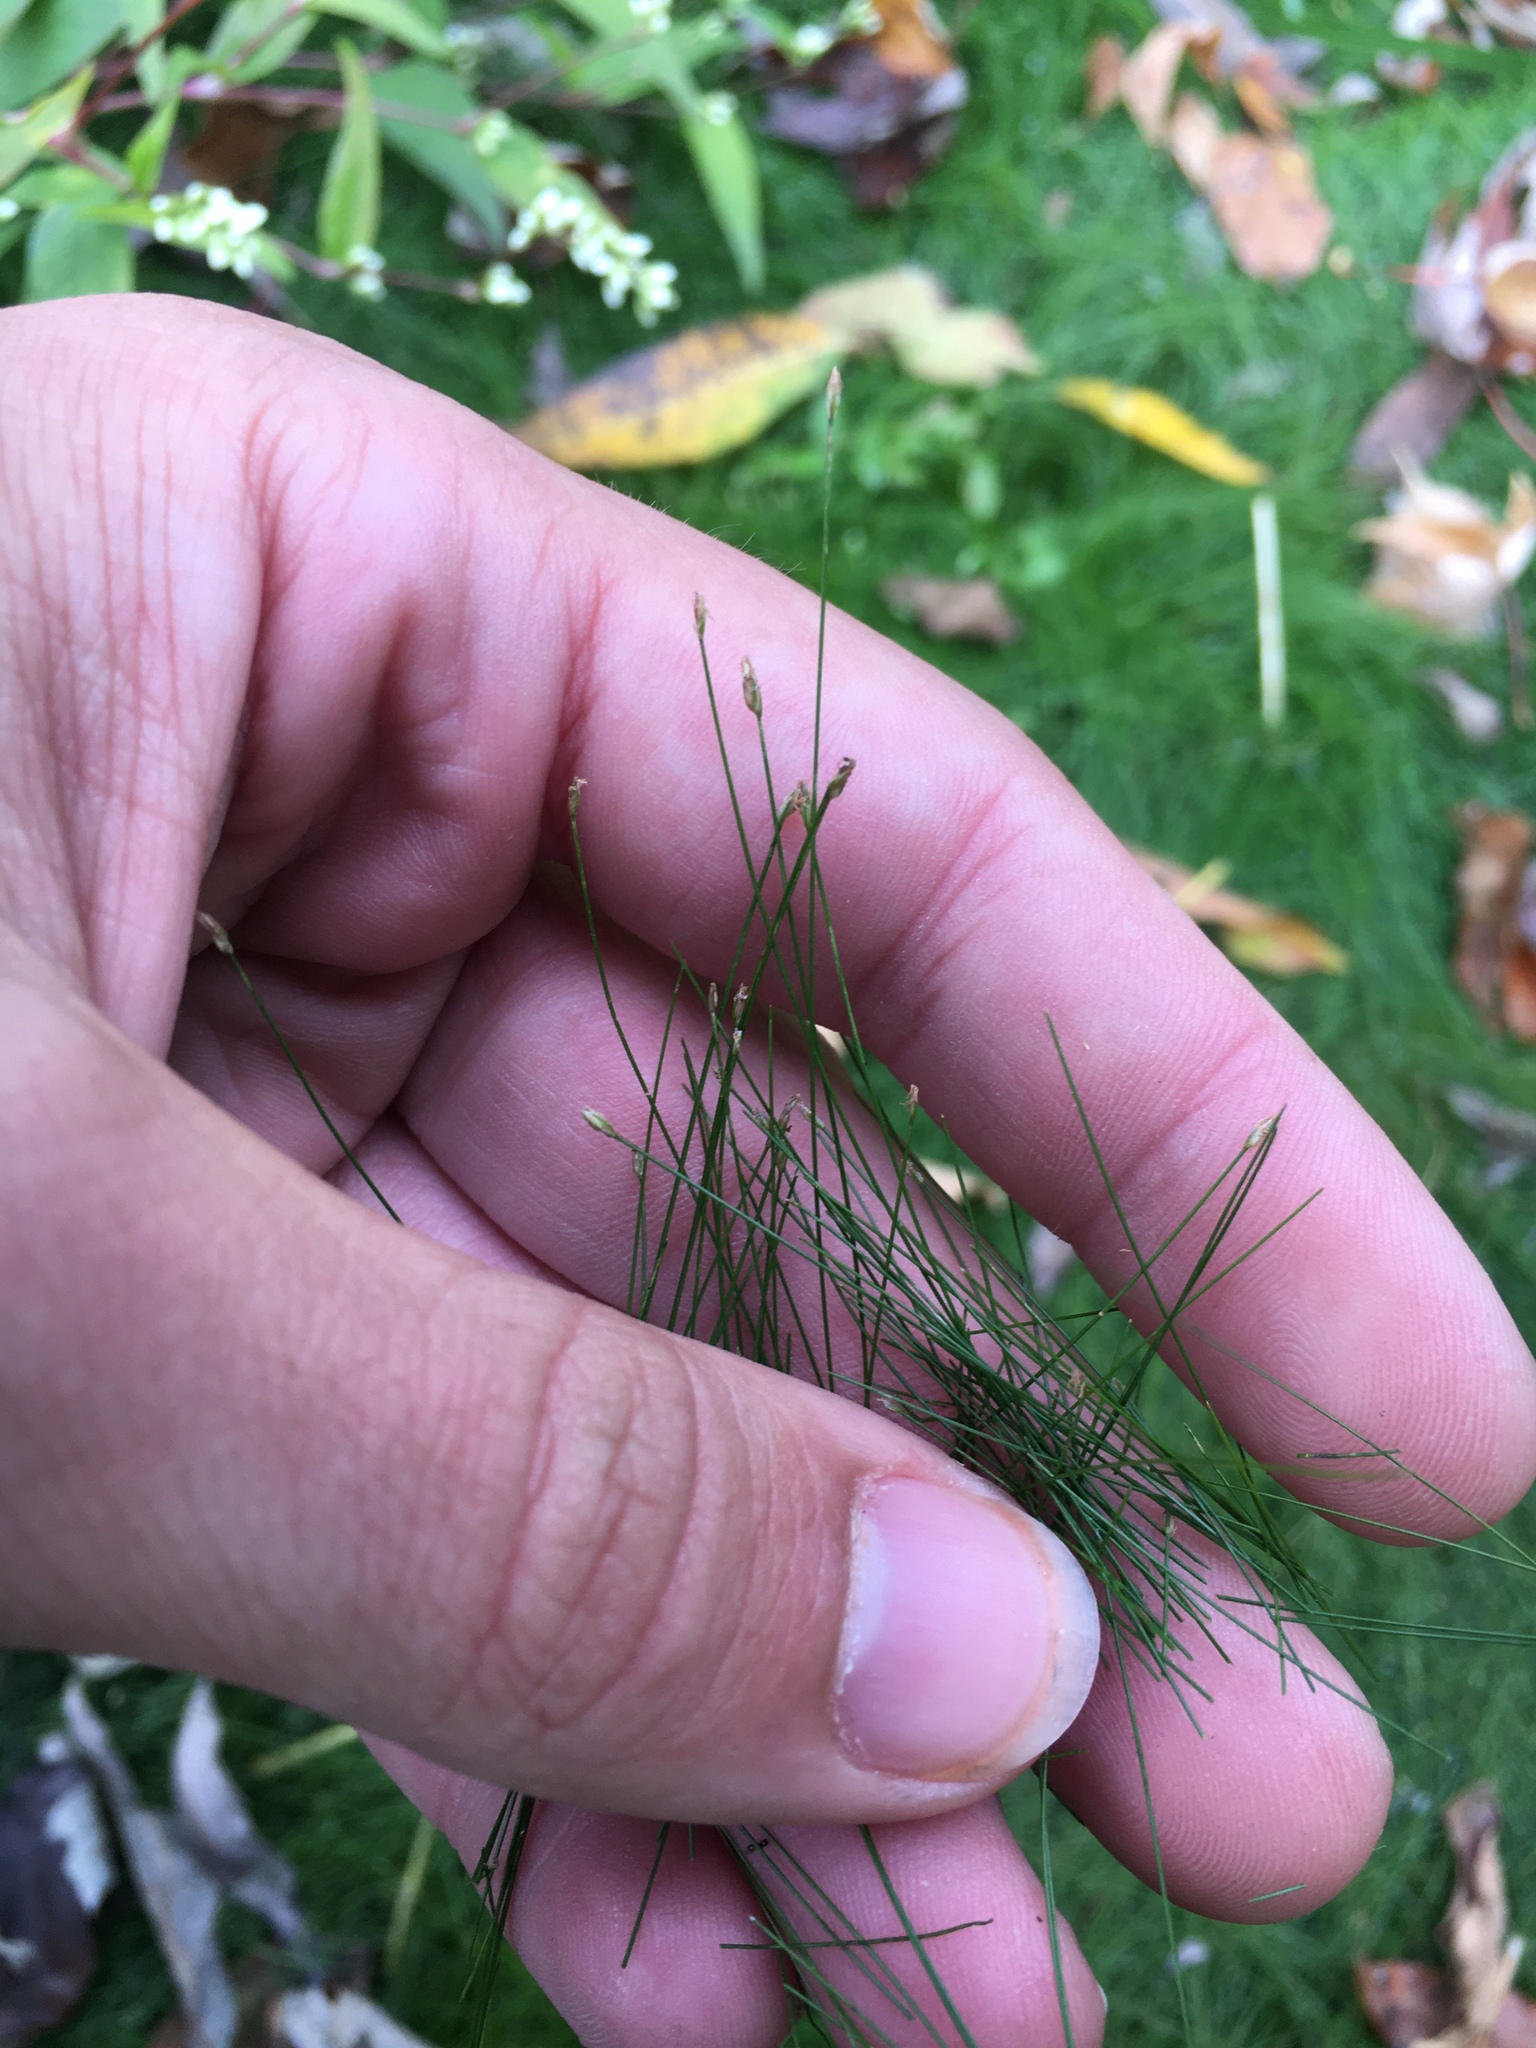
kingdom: Plantae
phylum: Tracheophyta
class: Liliopsida
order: Poales
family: Cyperaceae
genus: Eleocharis
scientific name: Eleocharis acicularis
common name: Needle spike-rush
